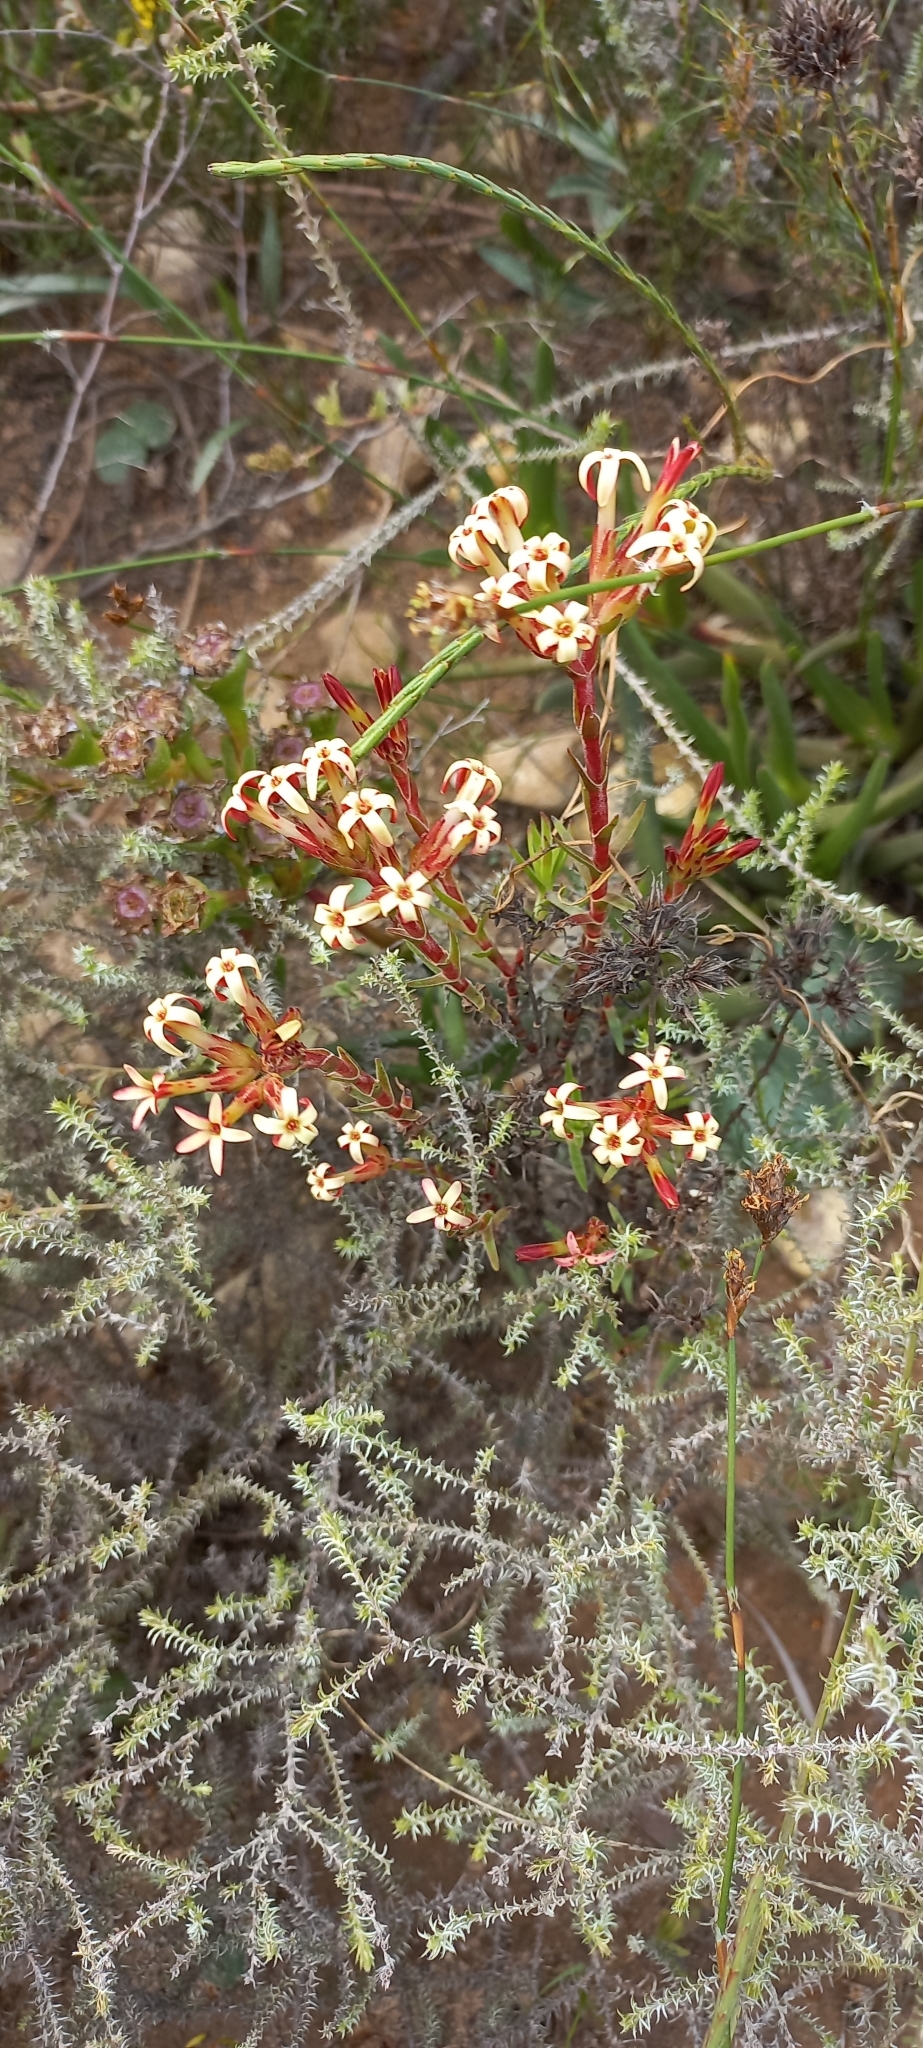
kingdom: Plantae
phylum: Tracheophyta
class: Magnoliopsida
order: Saxifragales
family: Crassulaceae
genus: Crassula
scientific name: Crassula fascicularis
